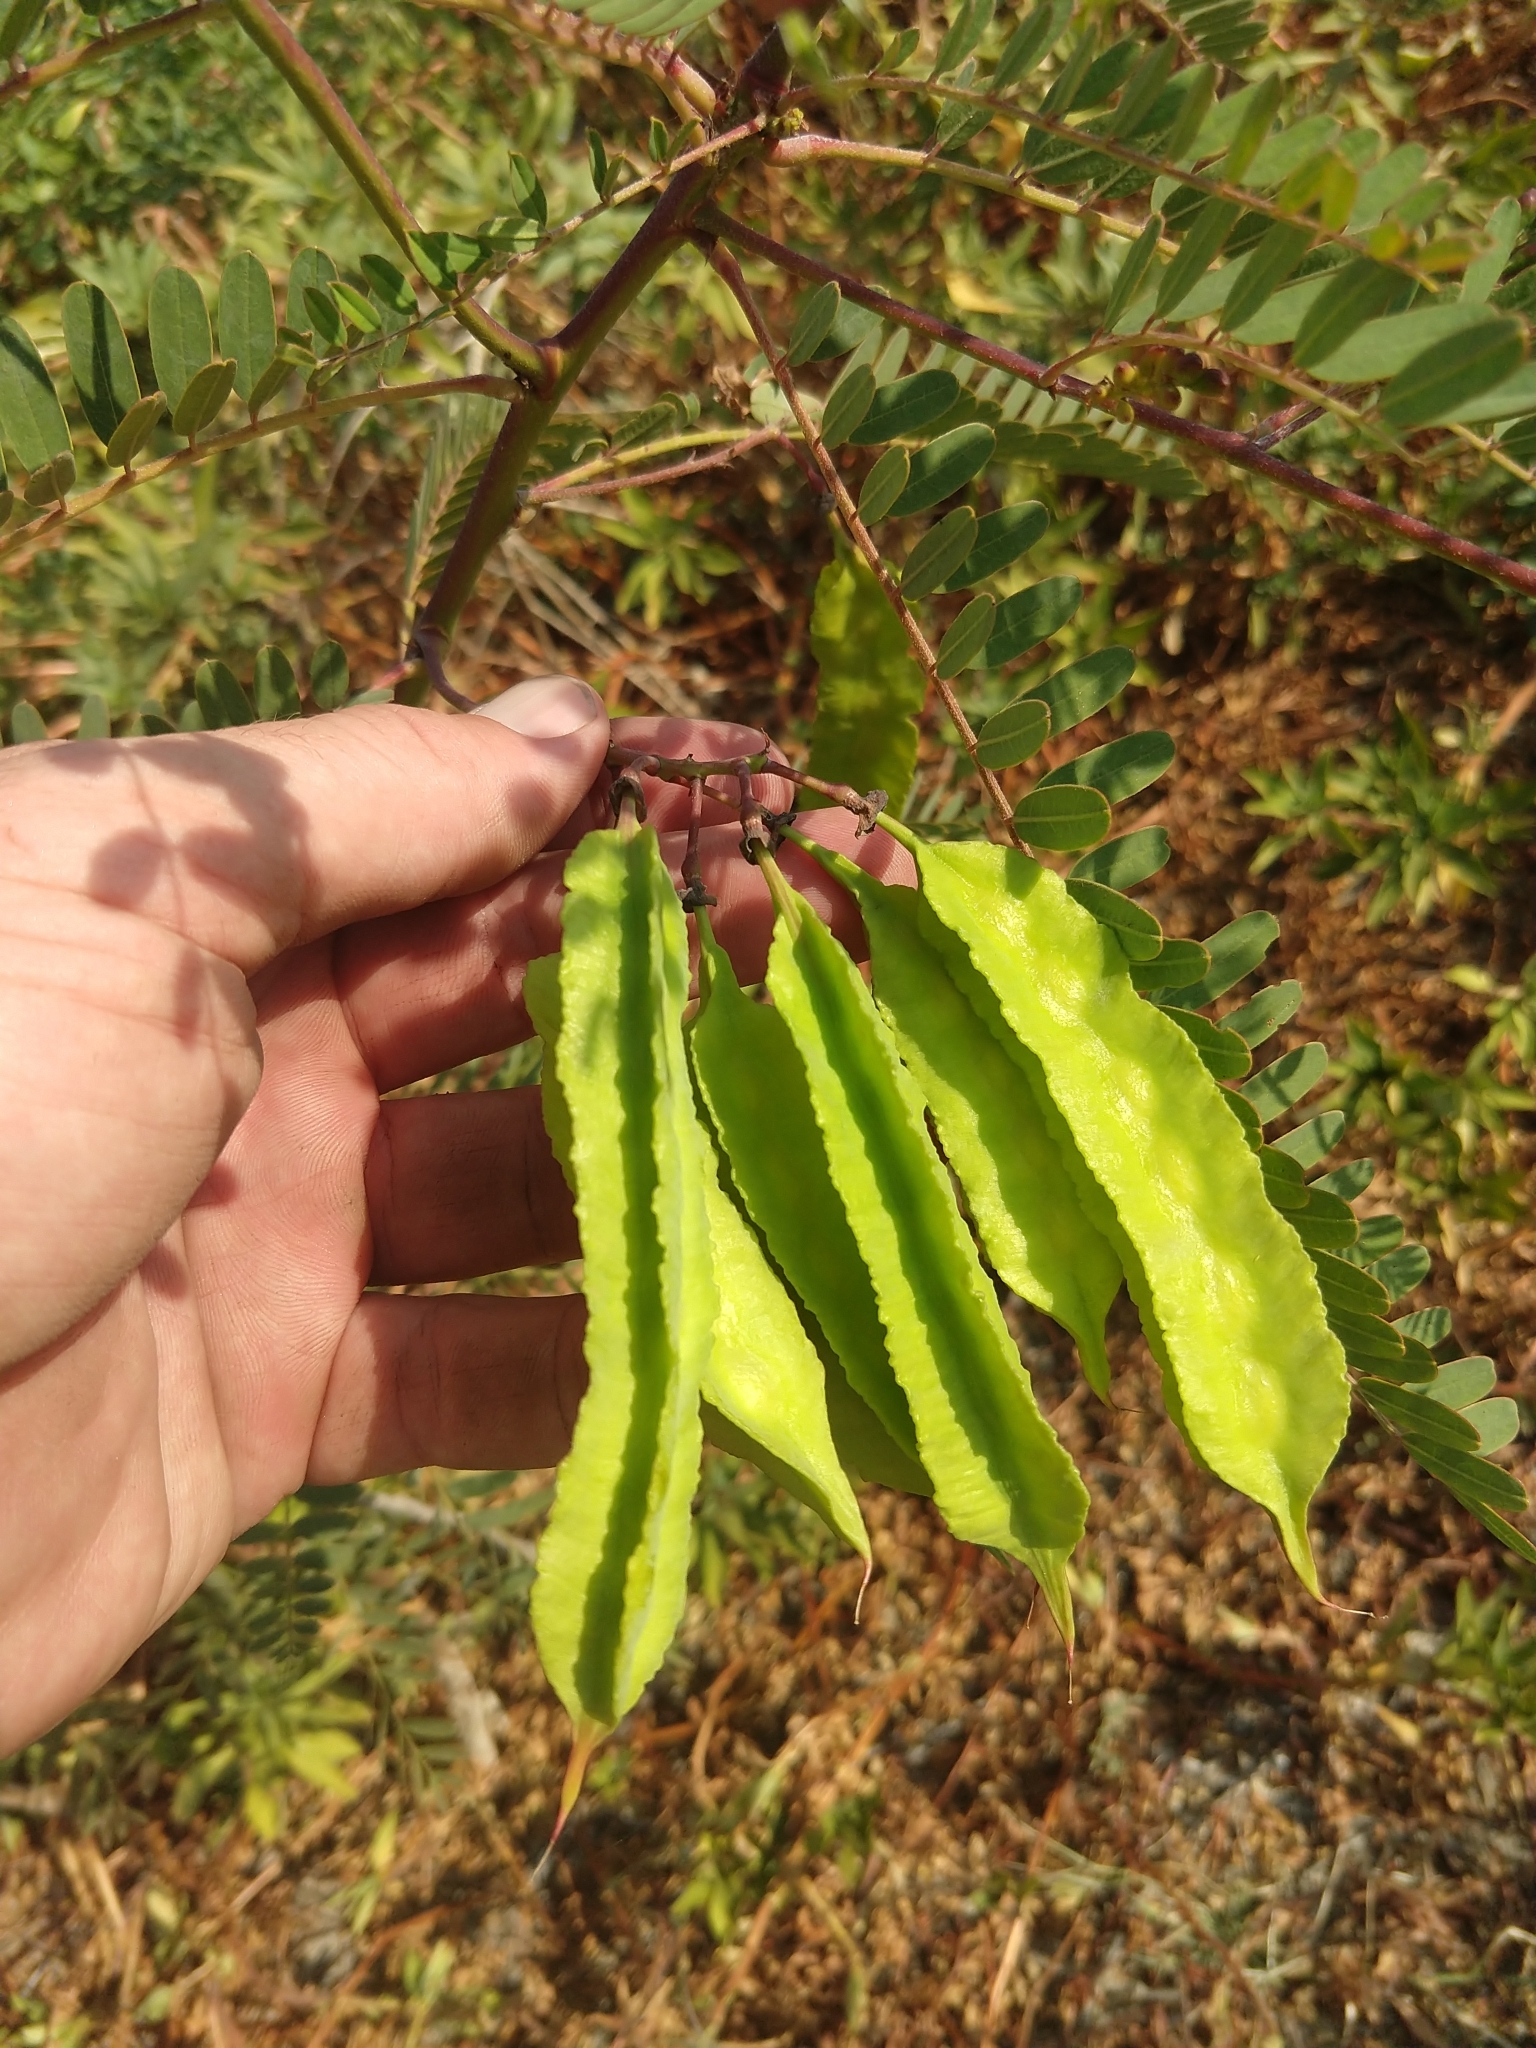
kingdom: Plantae
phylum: Tracheophyta
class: Magnoliopsida
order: Fabales
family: Fabaceae
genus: Sesbania
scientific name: Sesbania punicea
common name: Rattlebox
